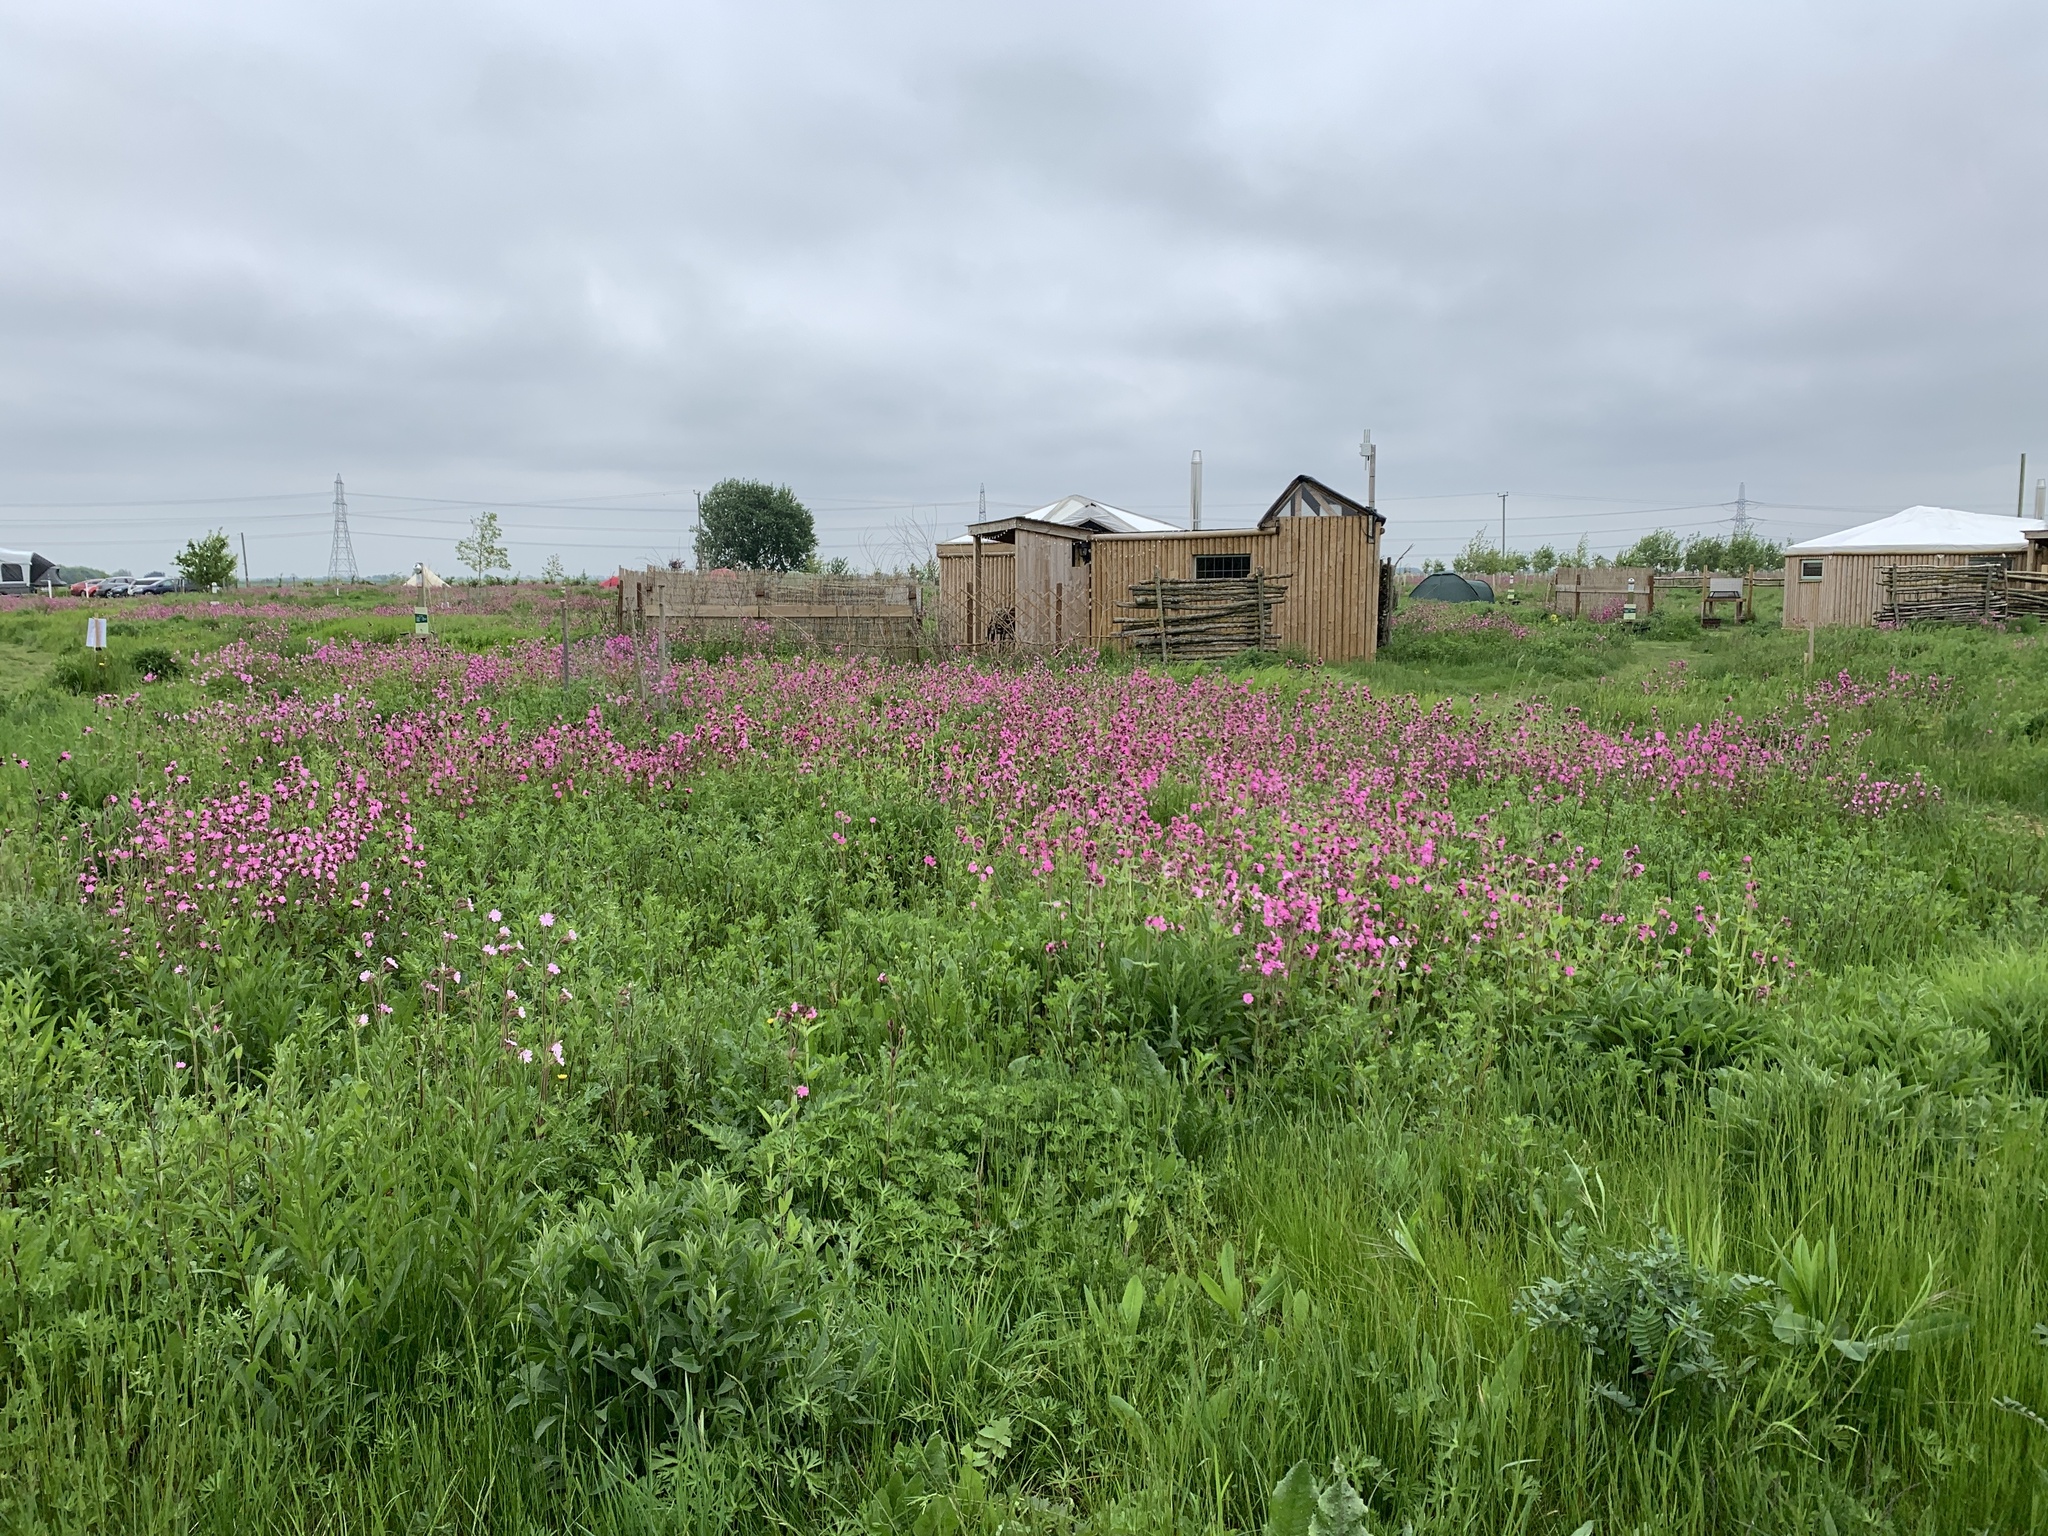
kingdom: Plantae
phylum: Tracheophyta
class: Magnoliopsida
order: Caryophyllales
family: Caryophyllaceae
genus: Silene
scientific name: Silene dioica
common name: Red campion
